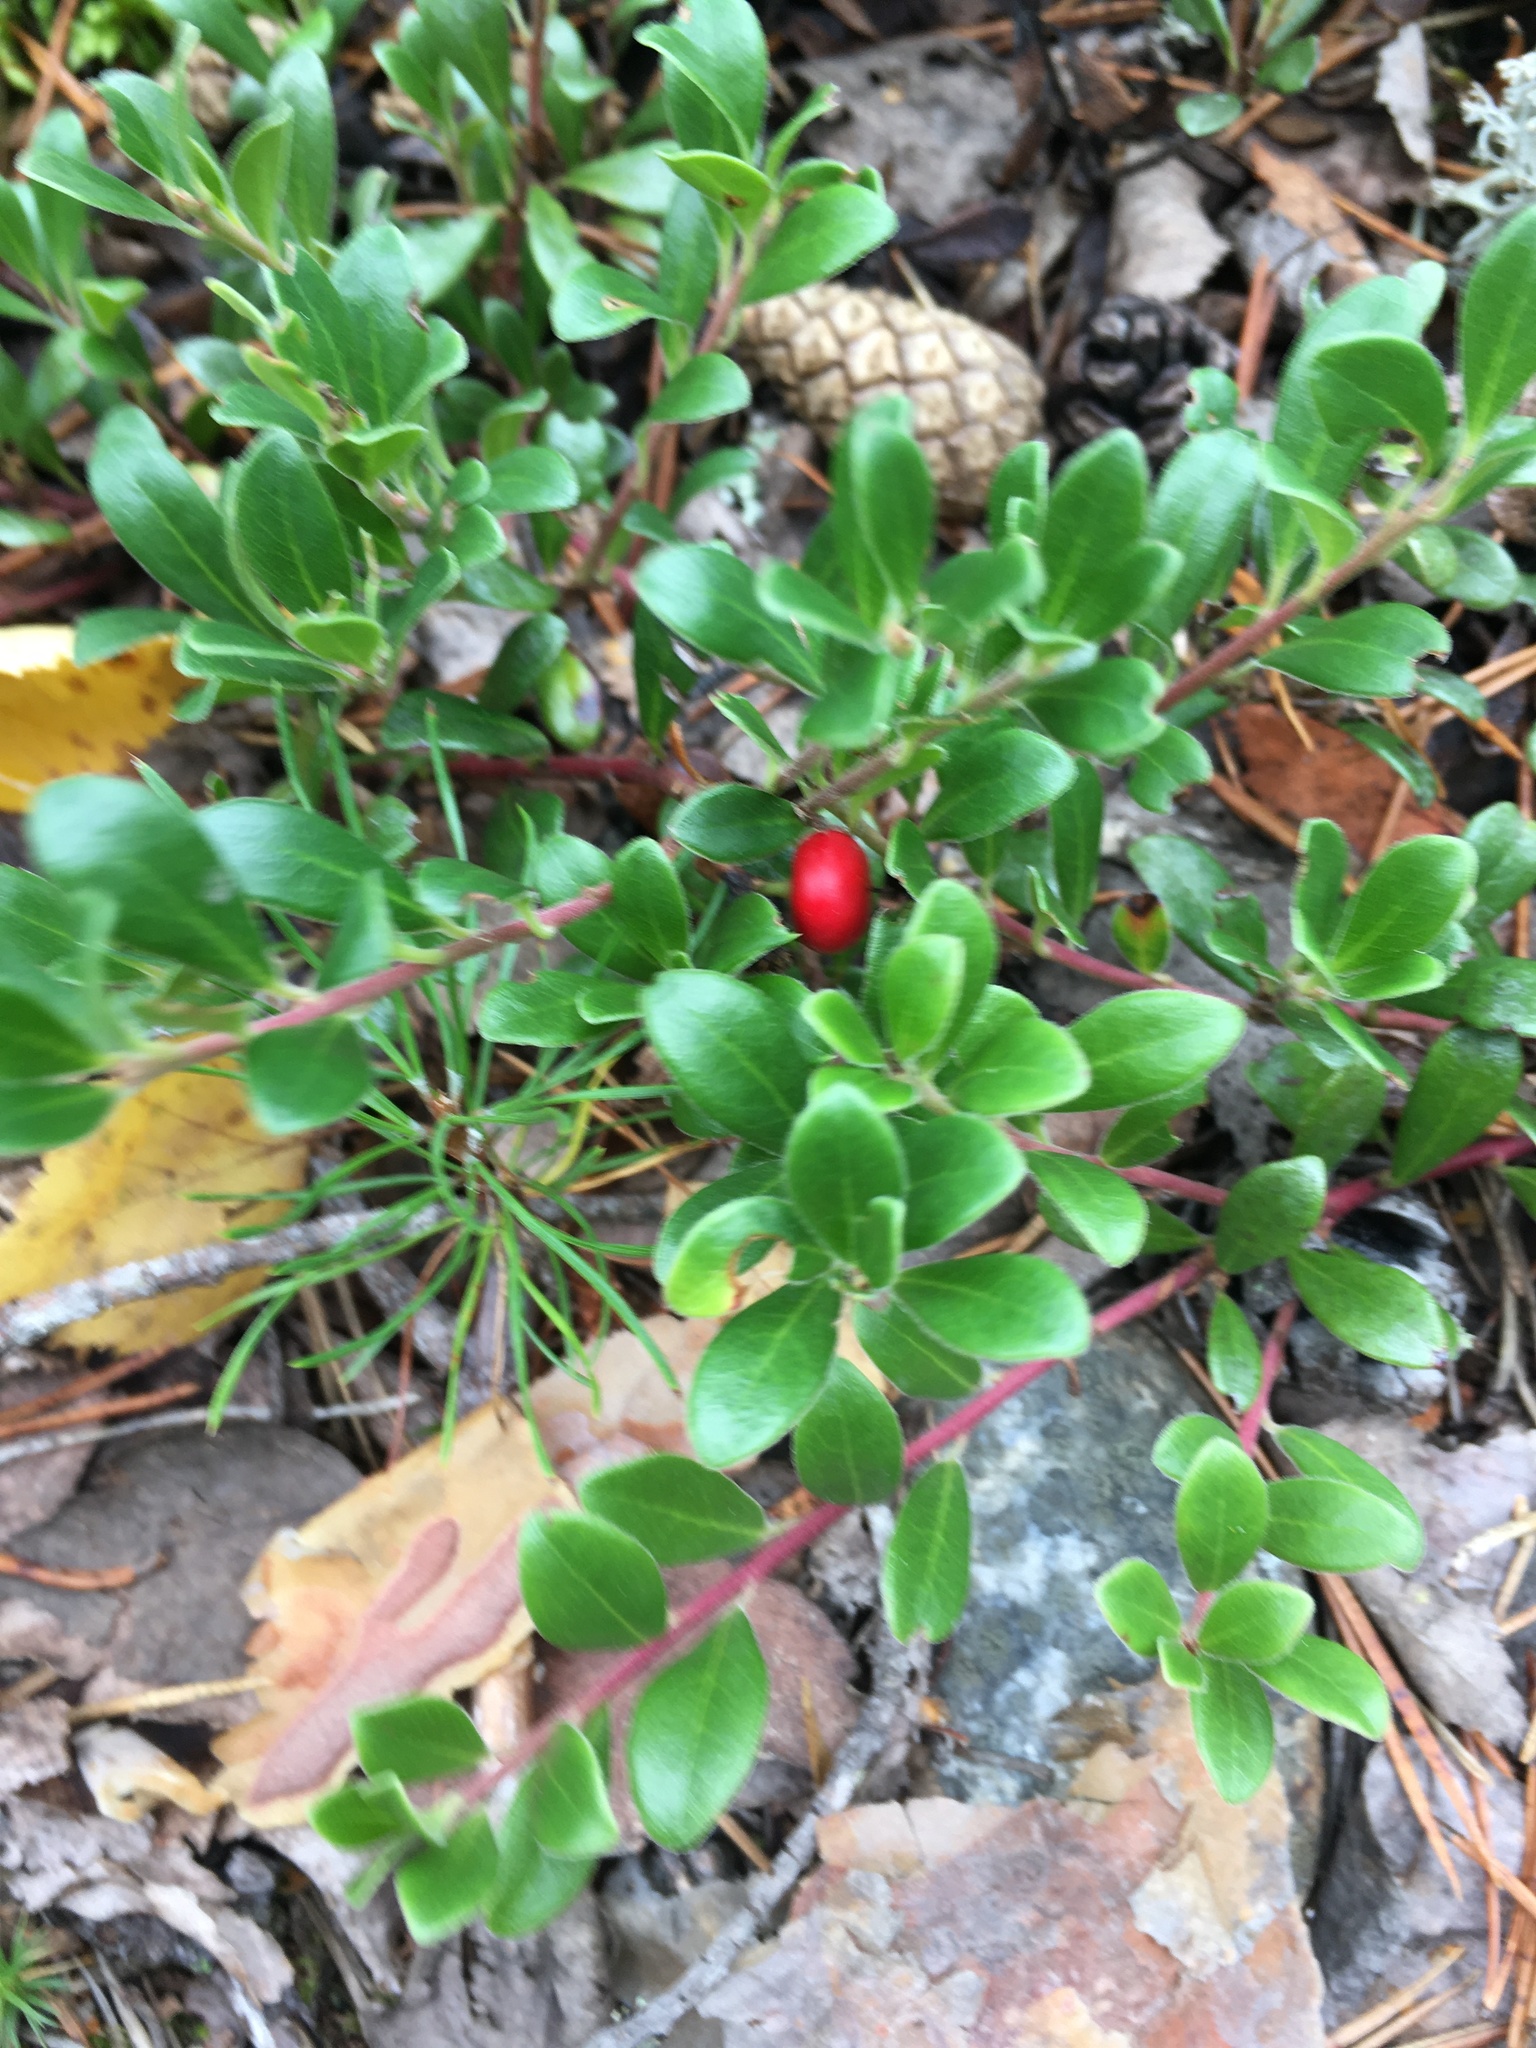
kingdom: Plantae
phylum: Tracheophyta
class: Magnoliopsida
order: Ericales
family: Ericaceae
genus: Arctostaphylos
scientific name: Arctostaphylos uva-ursi
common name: Bearberry
